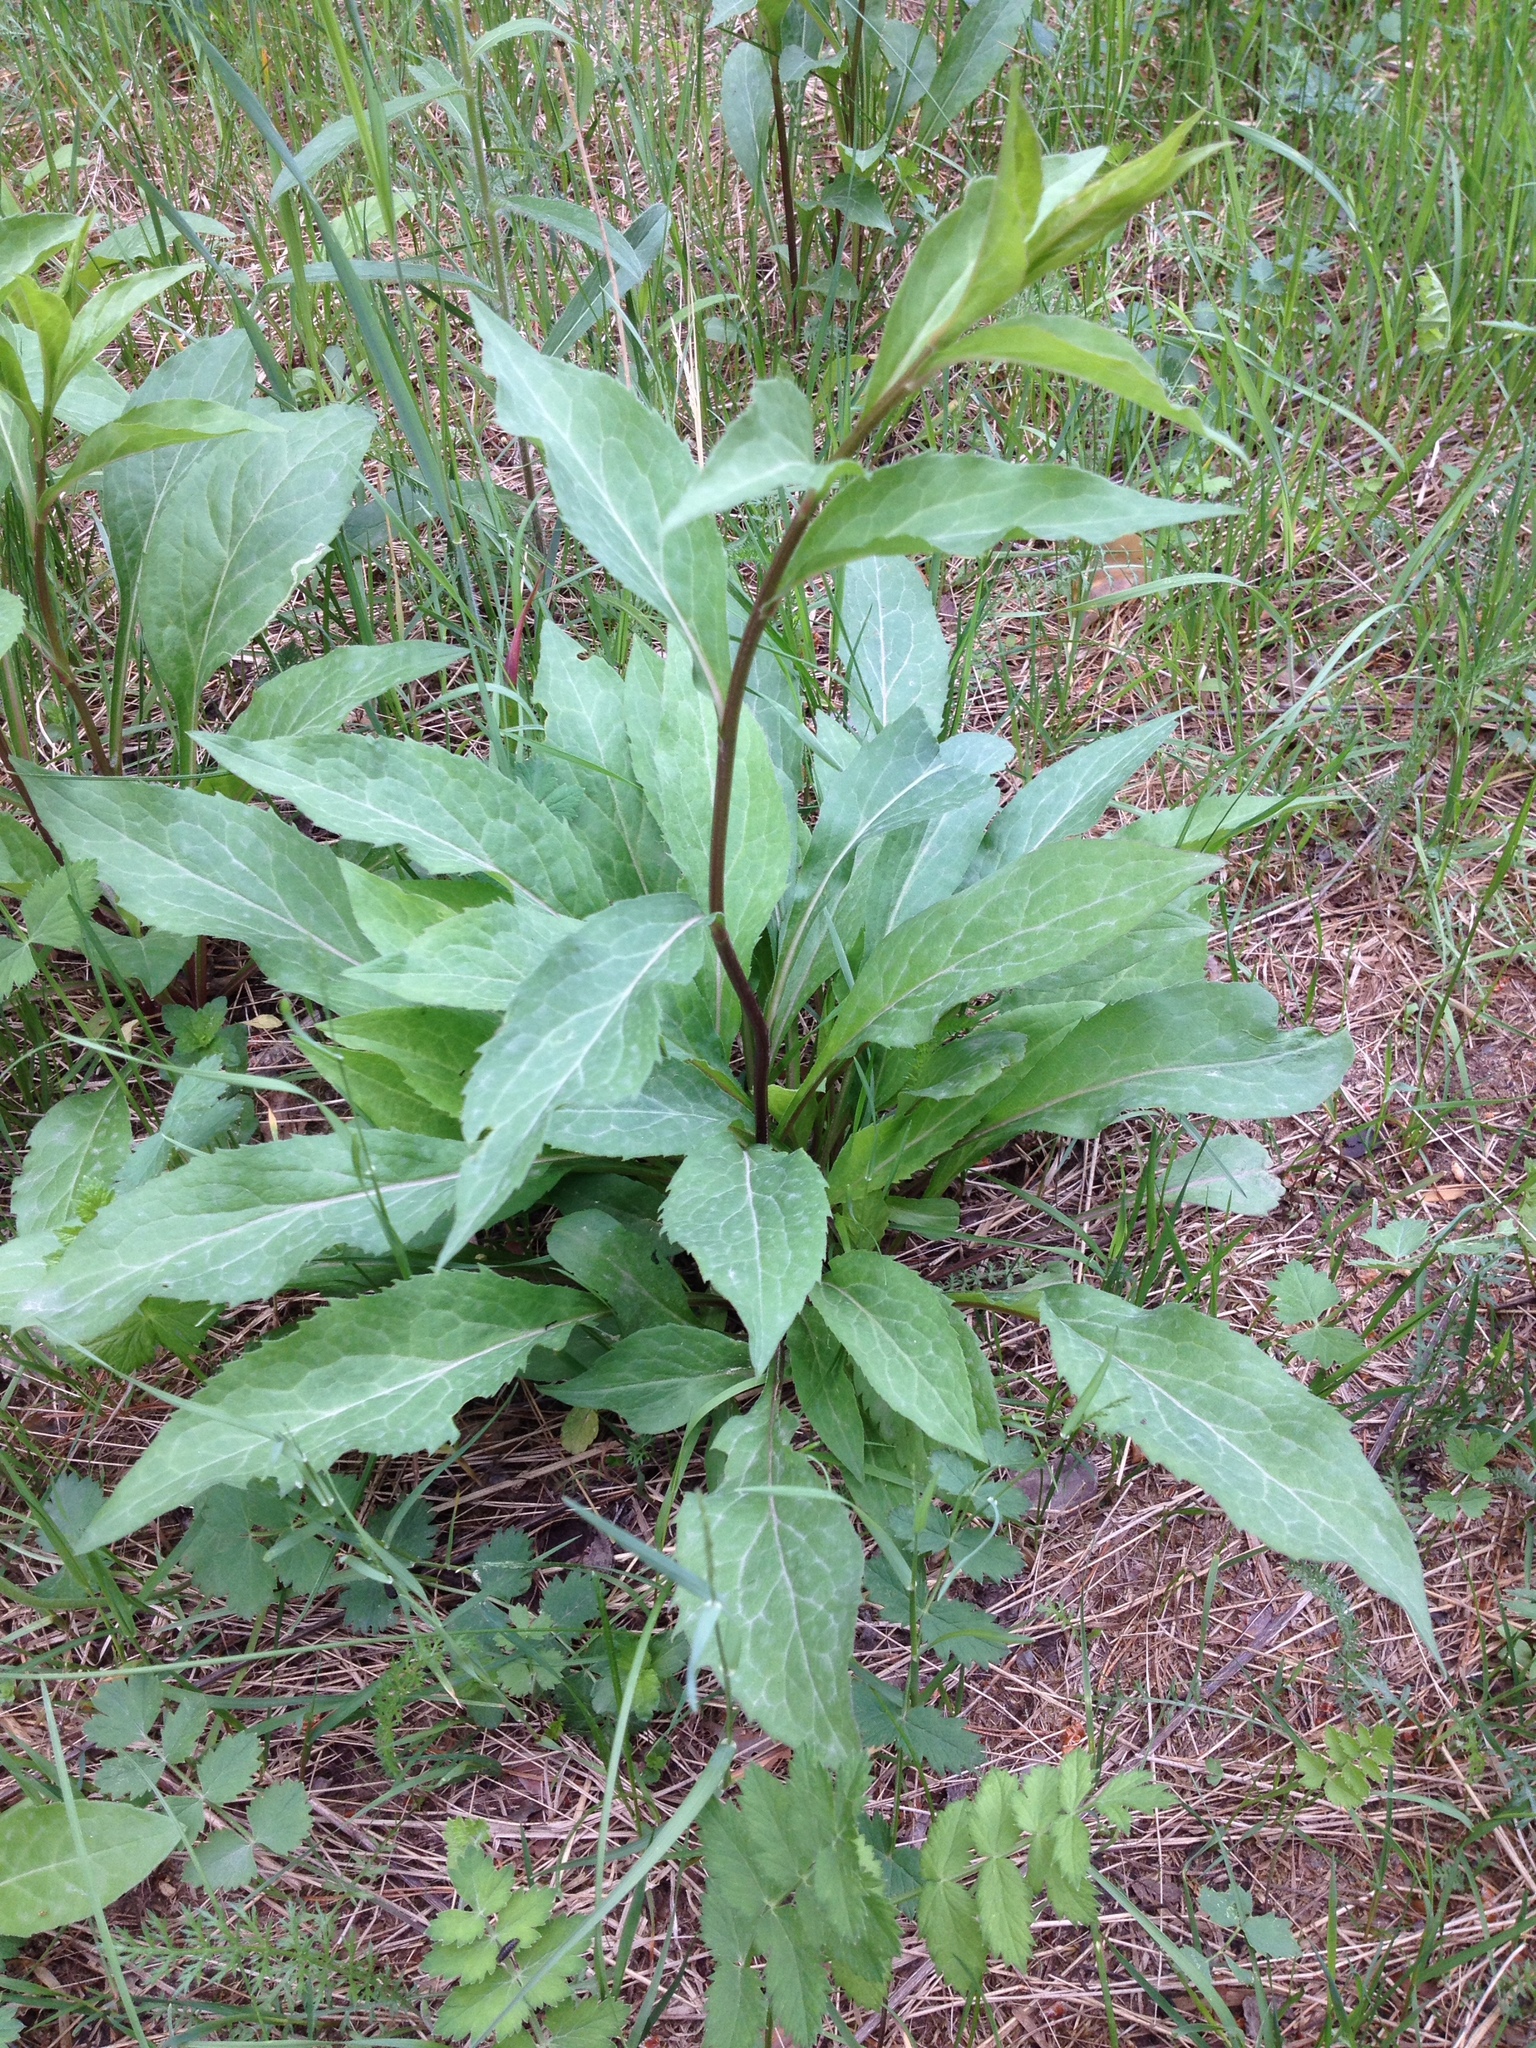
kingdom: Plantae
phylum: Tracheophyta
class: Magnoliopsida
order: Asterales
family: Asteraceae
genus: Solidago
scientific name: Solidago virgaurea
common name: Goldenrod
